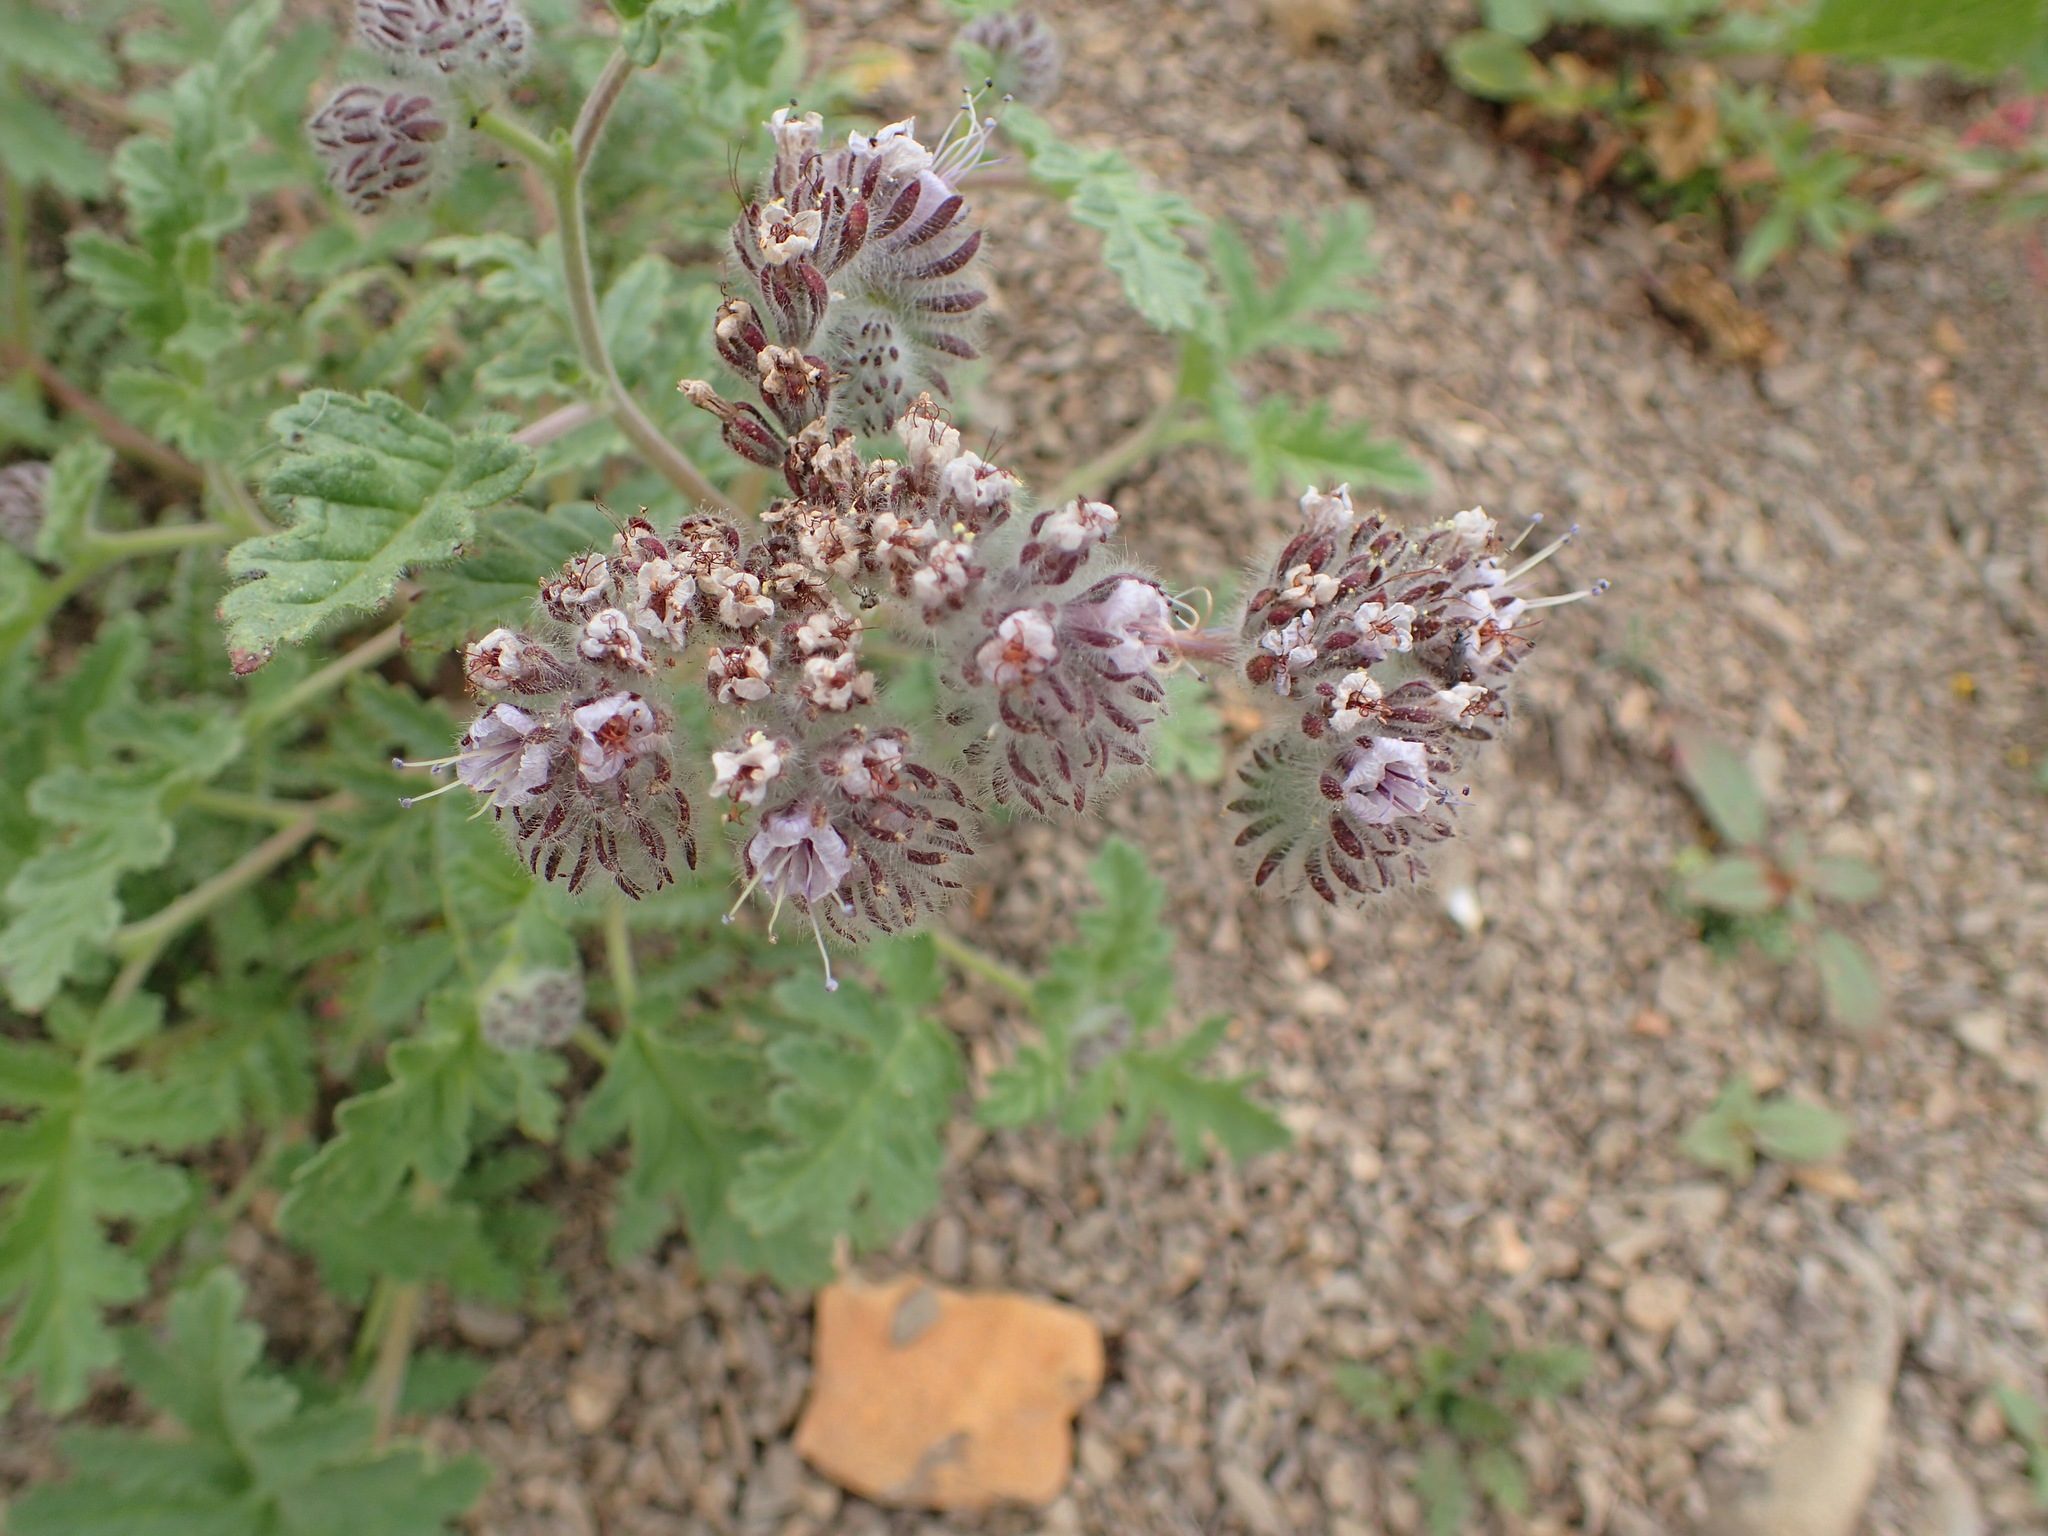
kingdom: Plantae
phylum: Tracheophyta
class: Magnoliopsida
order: Boraginales
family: Hydrophyllaceae
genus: Phacelia
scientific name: Phacelia hubbyi
